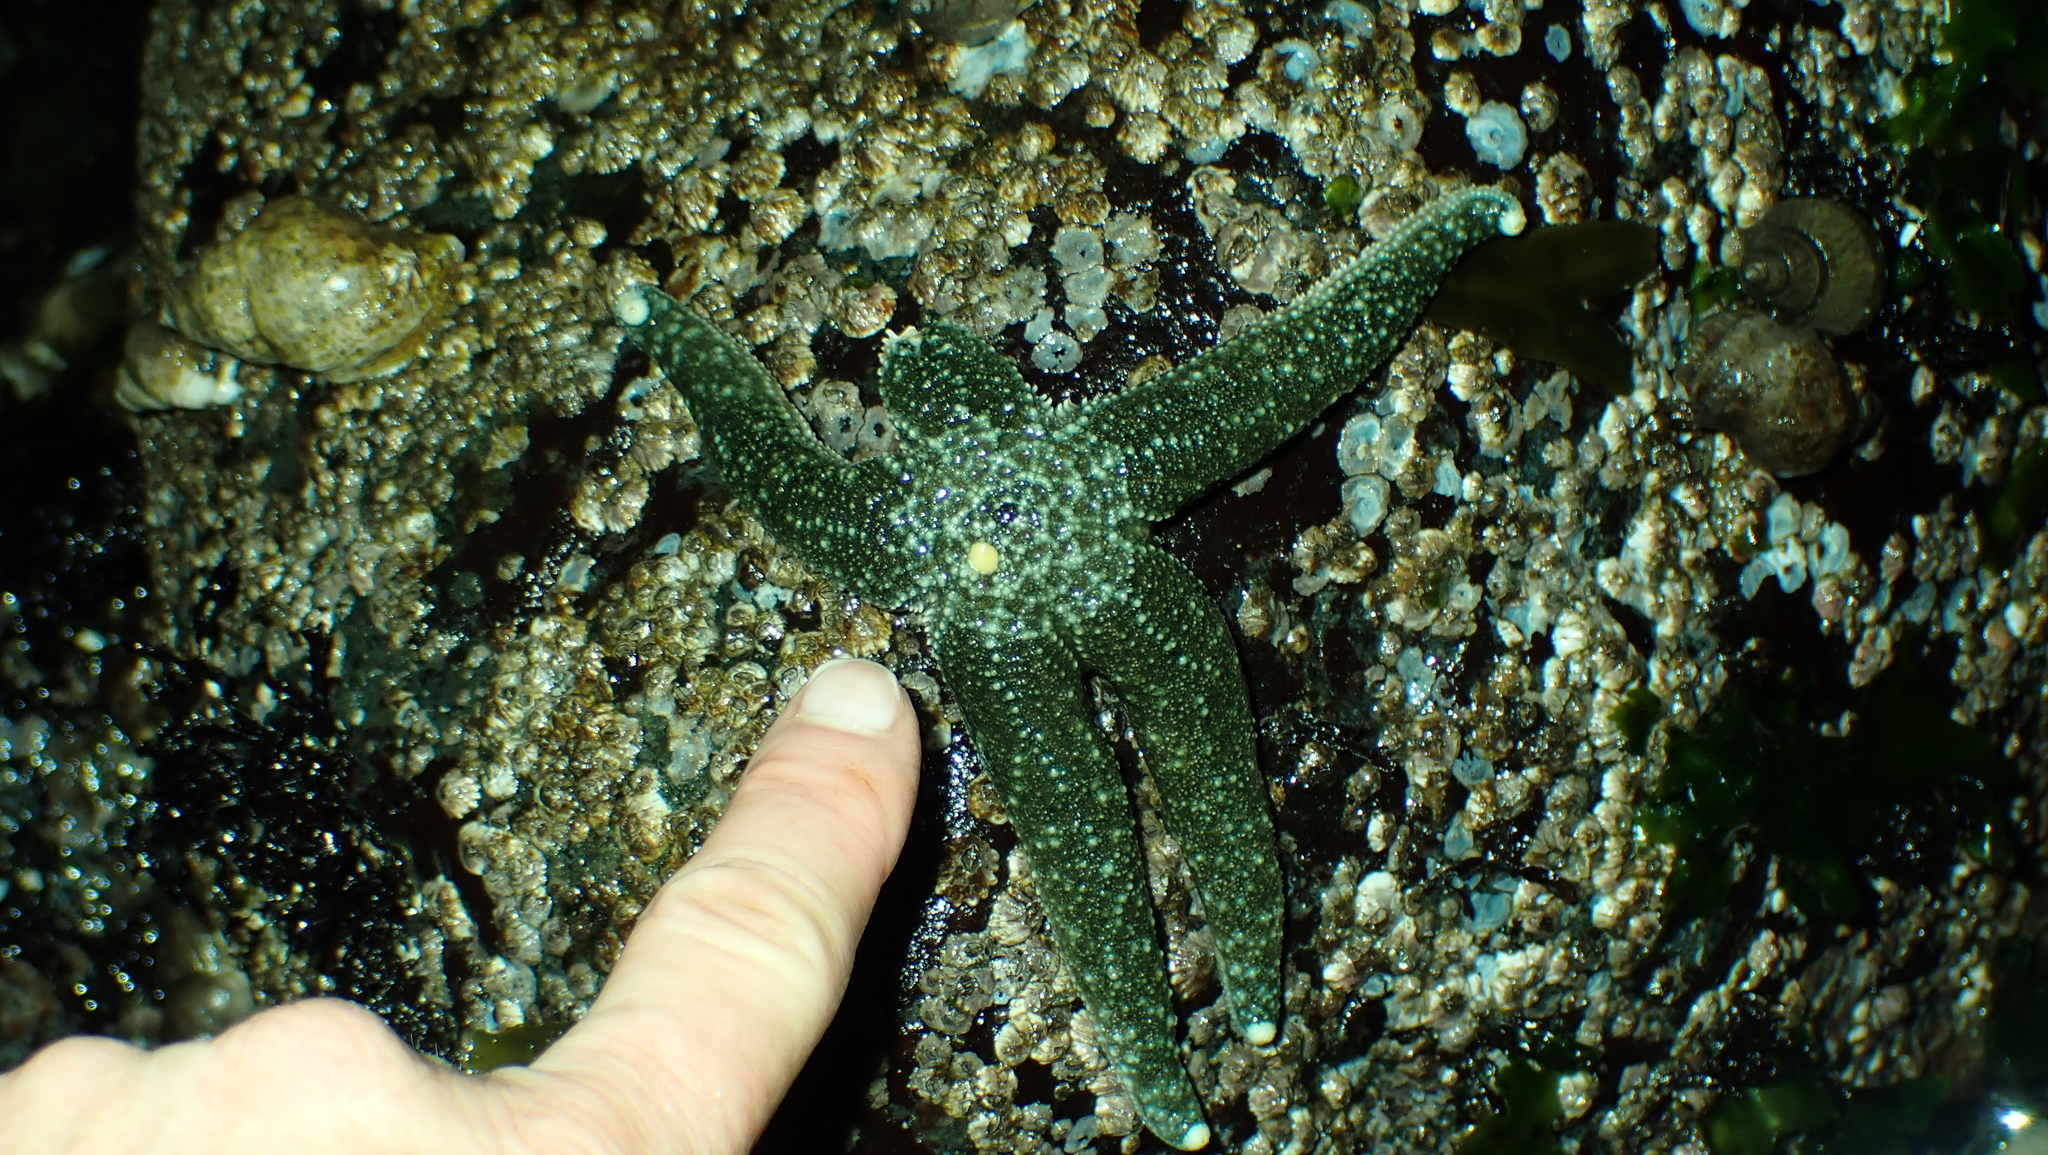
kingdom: Animalia
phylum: Echinodermata
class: Asteroidea
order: Forcipulatida
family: Asteriidae
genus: Evasterias
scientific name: Evasterias troschelii
